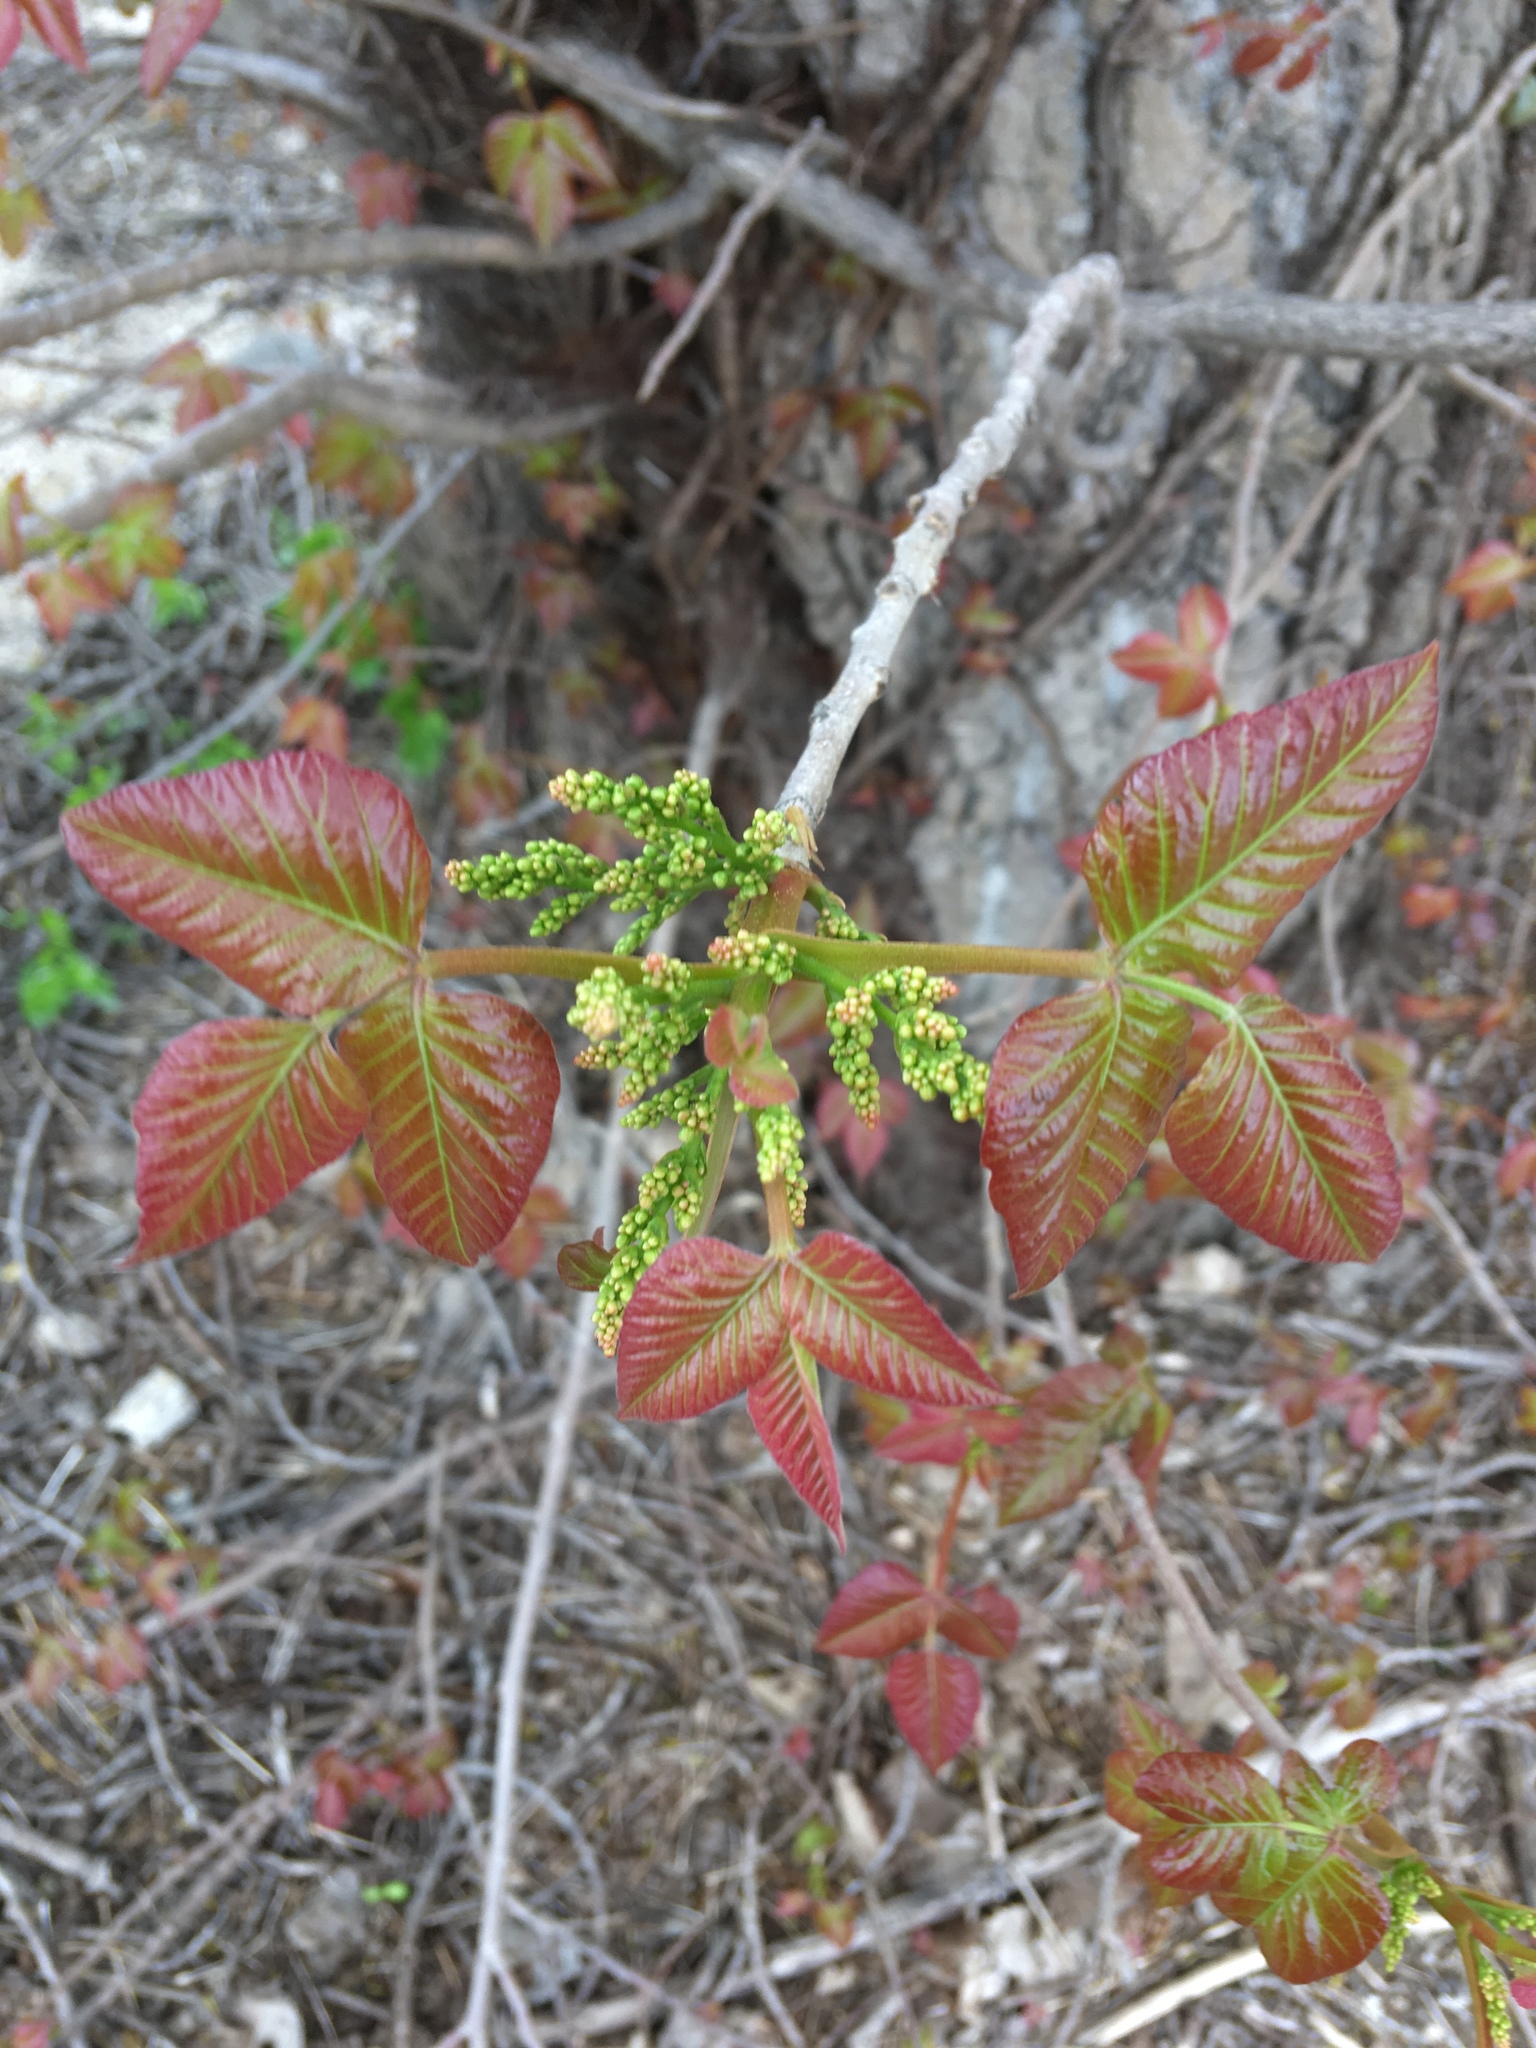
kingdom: Plantae
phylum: Tracheophyta
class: Magnoliopsida
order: Sapindales
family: Anacardiaceae
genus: Toxicodendron
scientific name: Toxicodendron radicans
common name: Poison ivy
